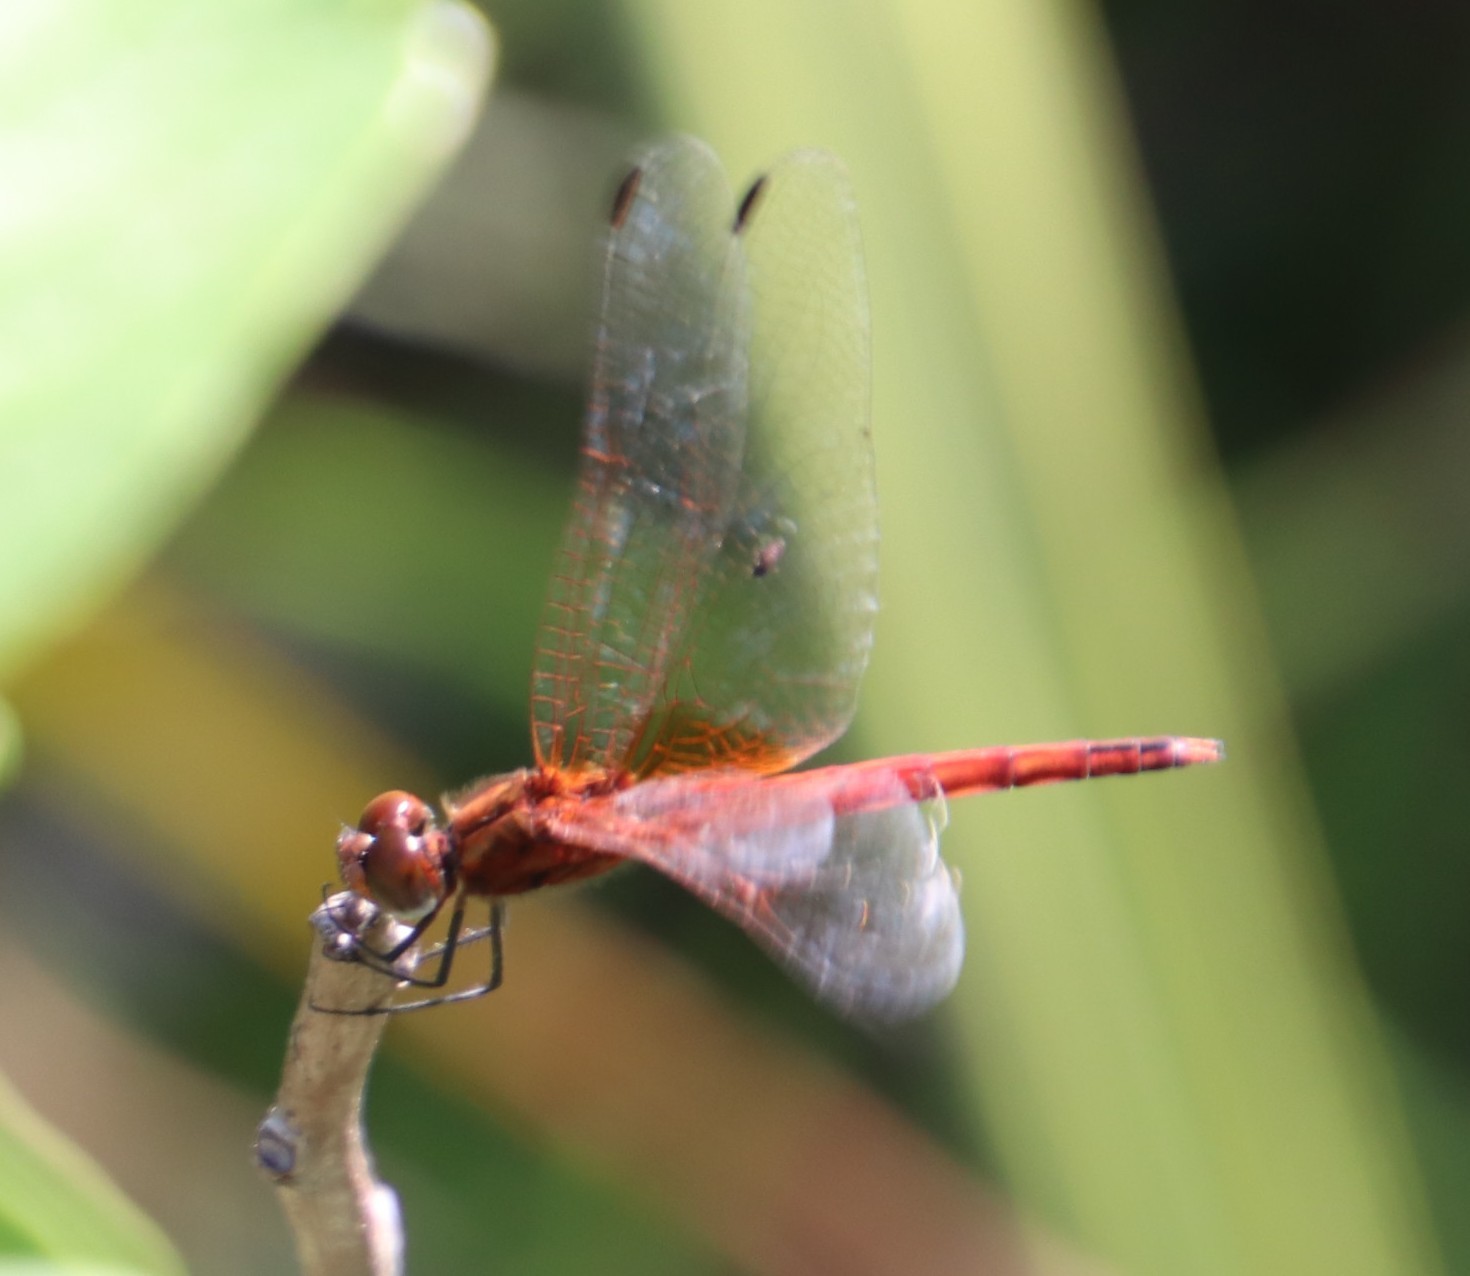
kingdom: Animalia
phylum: Arthropoda
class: Insecta
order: Odonata
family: Libellulidae
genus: Sympetrum
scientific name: Sympetrum fonscolombii
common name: Red-veined darter
